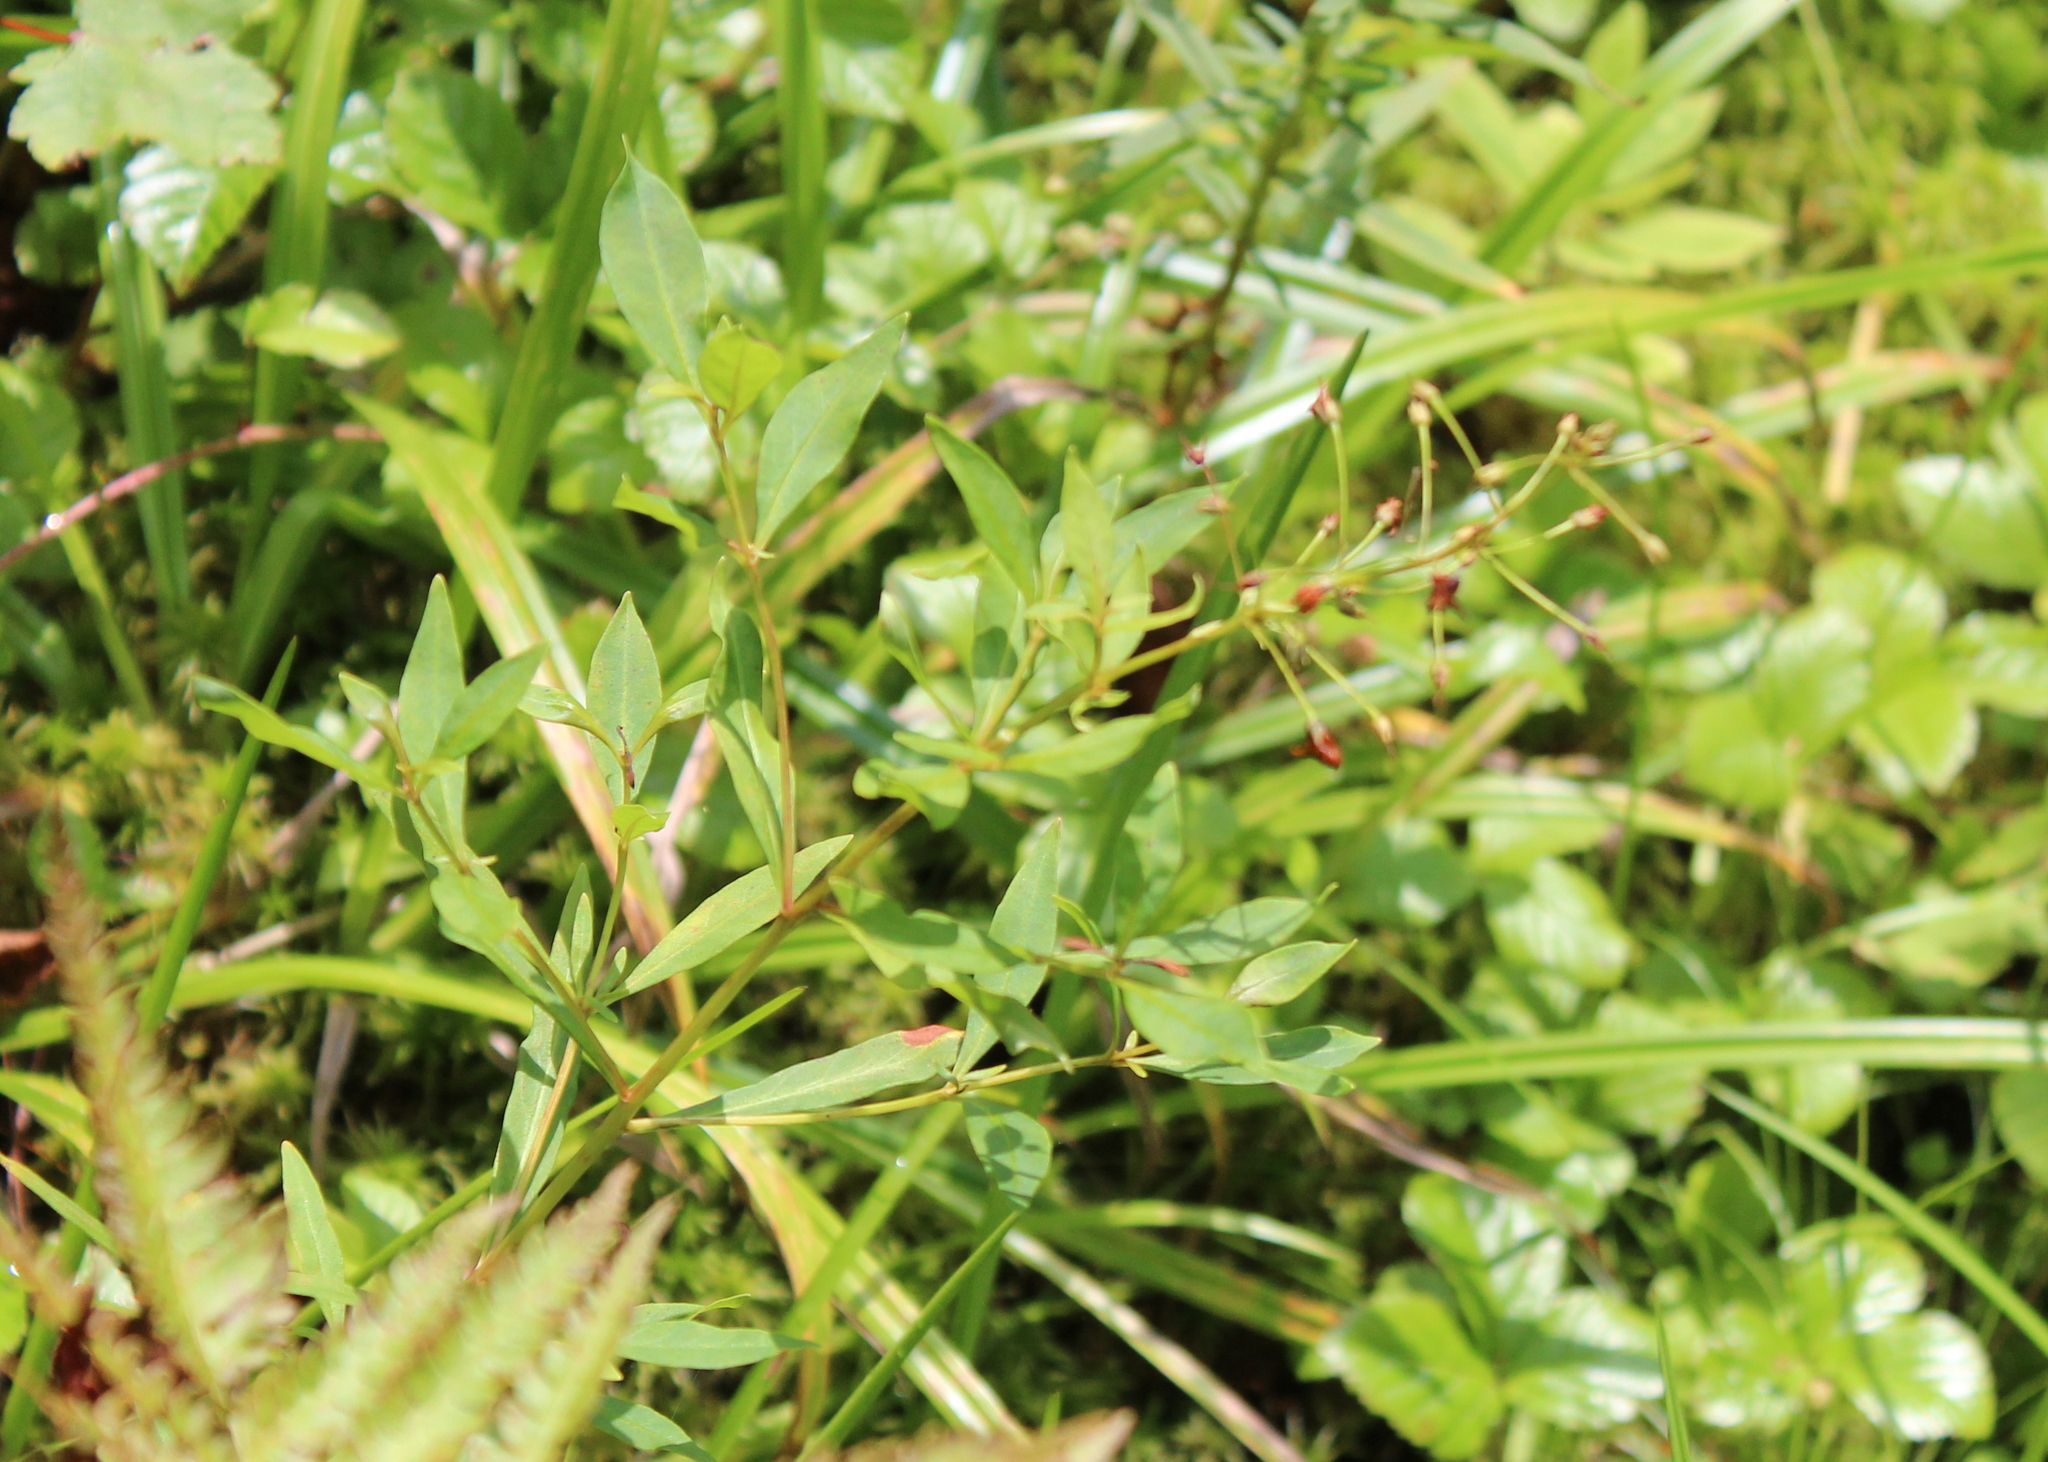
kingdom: Plantae
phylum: Tracheophyta
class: Magnoliopsida
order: Ericales
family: Primulaceae
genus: Lysimachia
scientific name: Lysimachia terrestris
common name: Lake loosestrife
